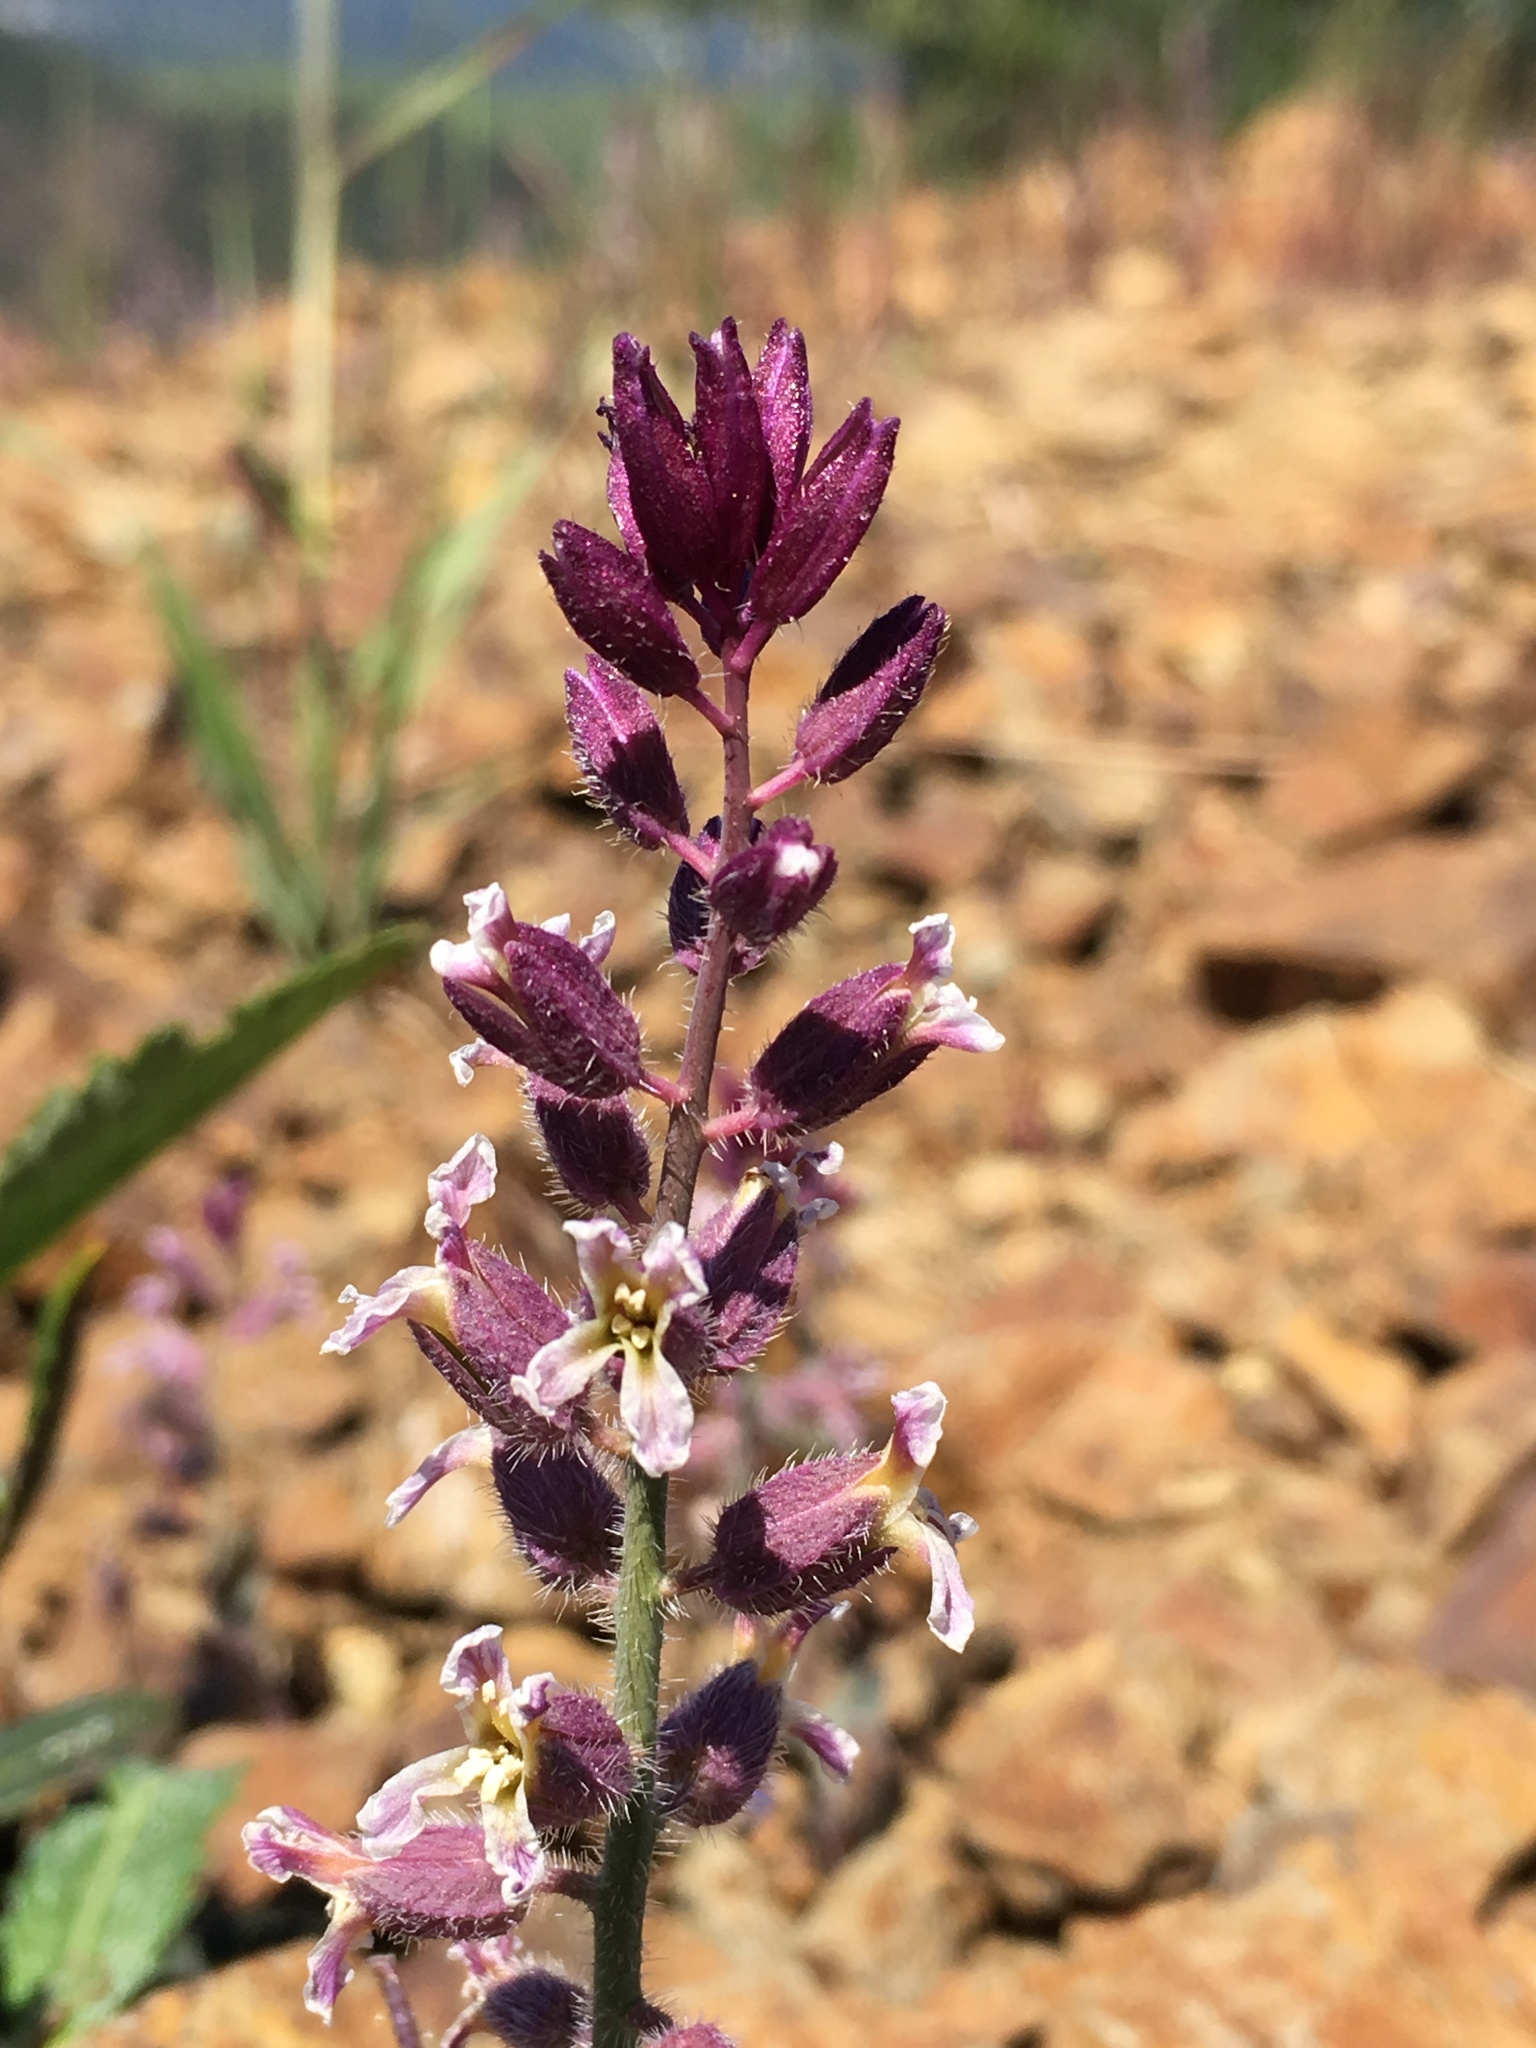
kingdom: Plantae
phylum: Tracheophyta
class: Magnoliopsida
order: Brassicales
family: Brassicaceae
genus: Streptanthus
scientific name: Streptanthus hispidus
